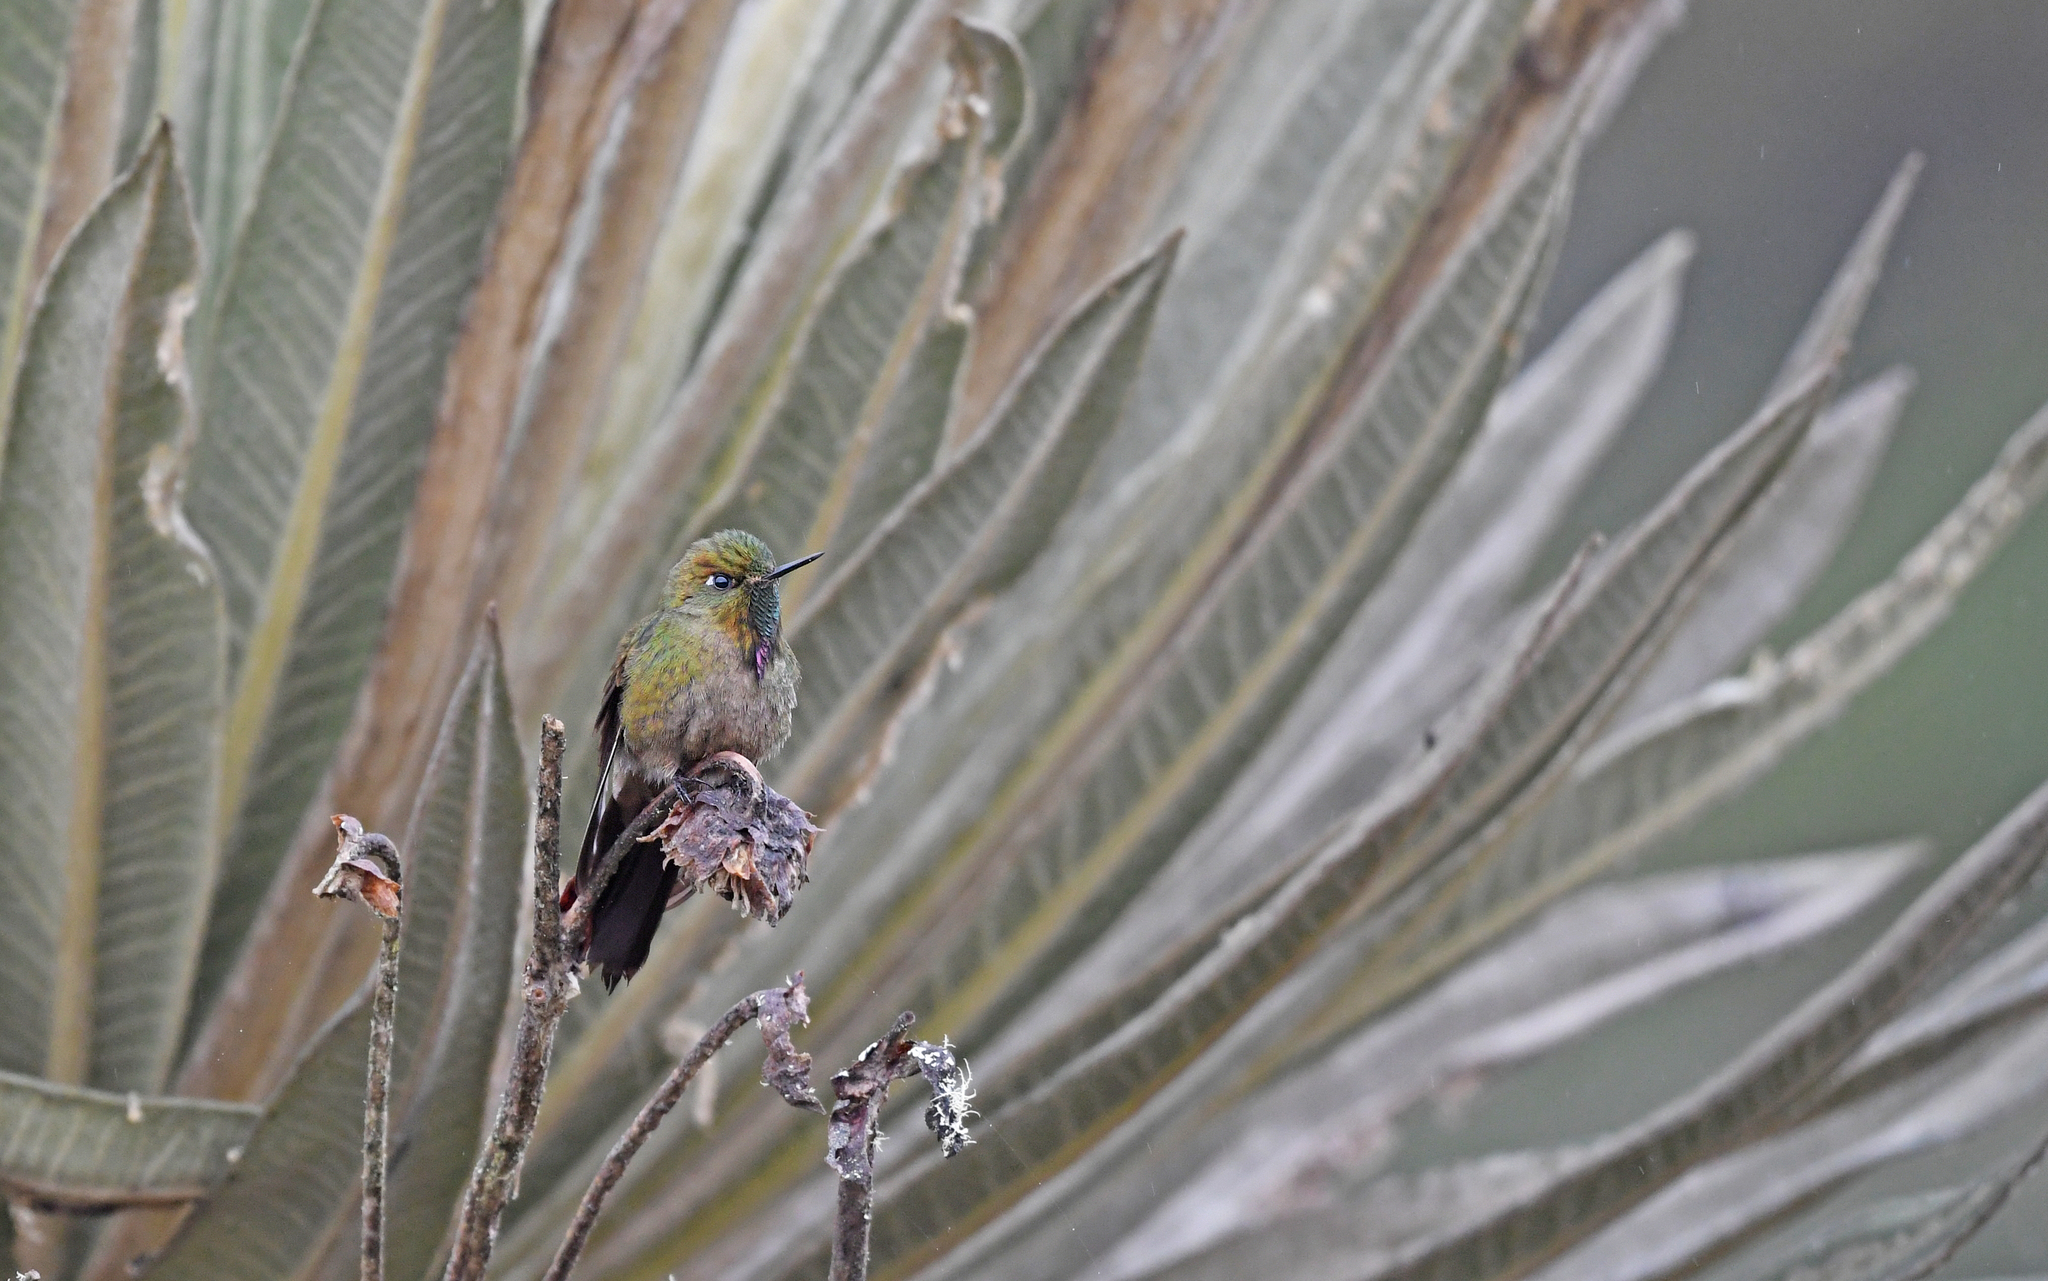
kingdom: Animalia
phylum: Chordata
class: Aves
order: Apodiformes
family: Trochilidae
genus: Chalcostigma
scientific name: Chalcostigma heteropogon
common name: Bronze-tailed thornbill
